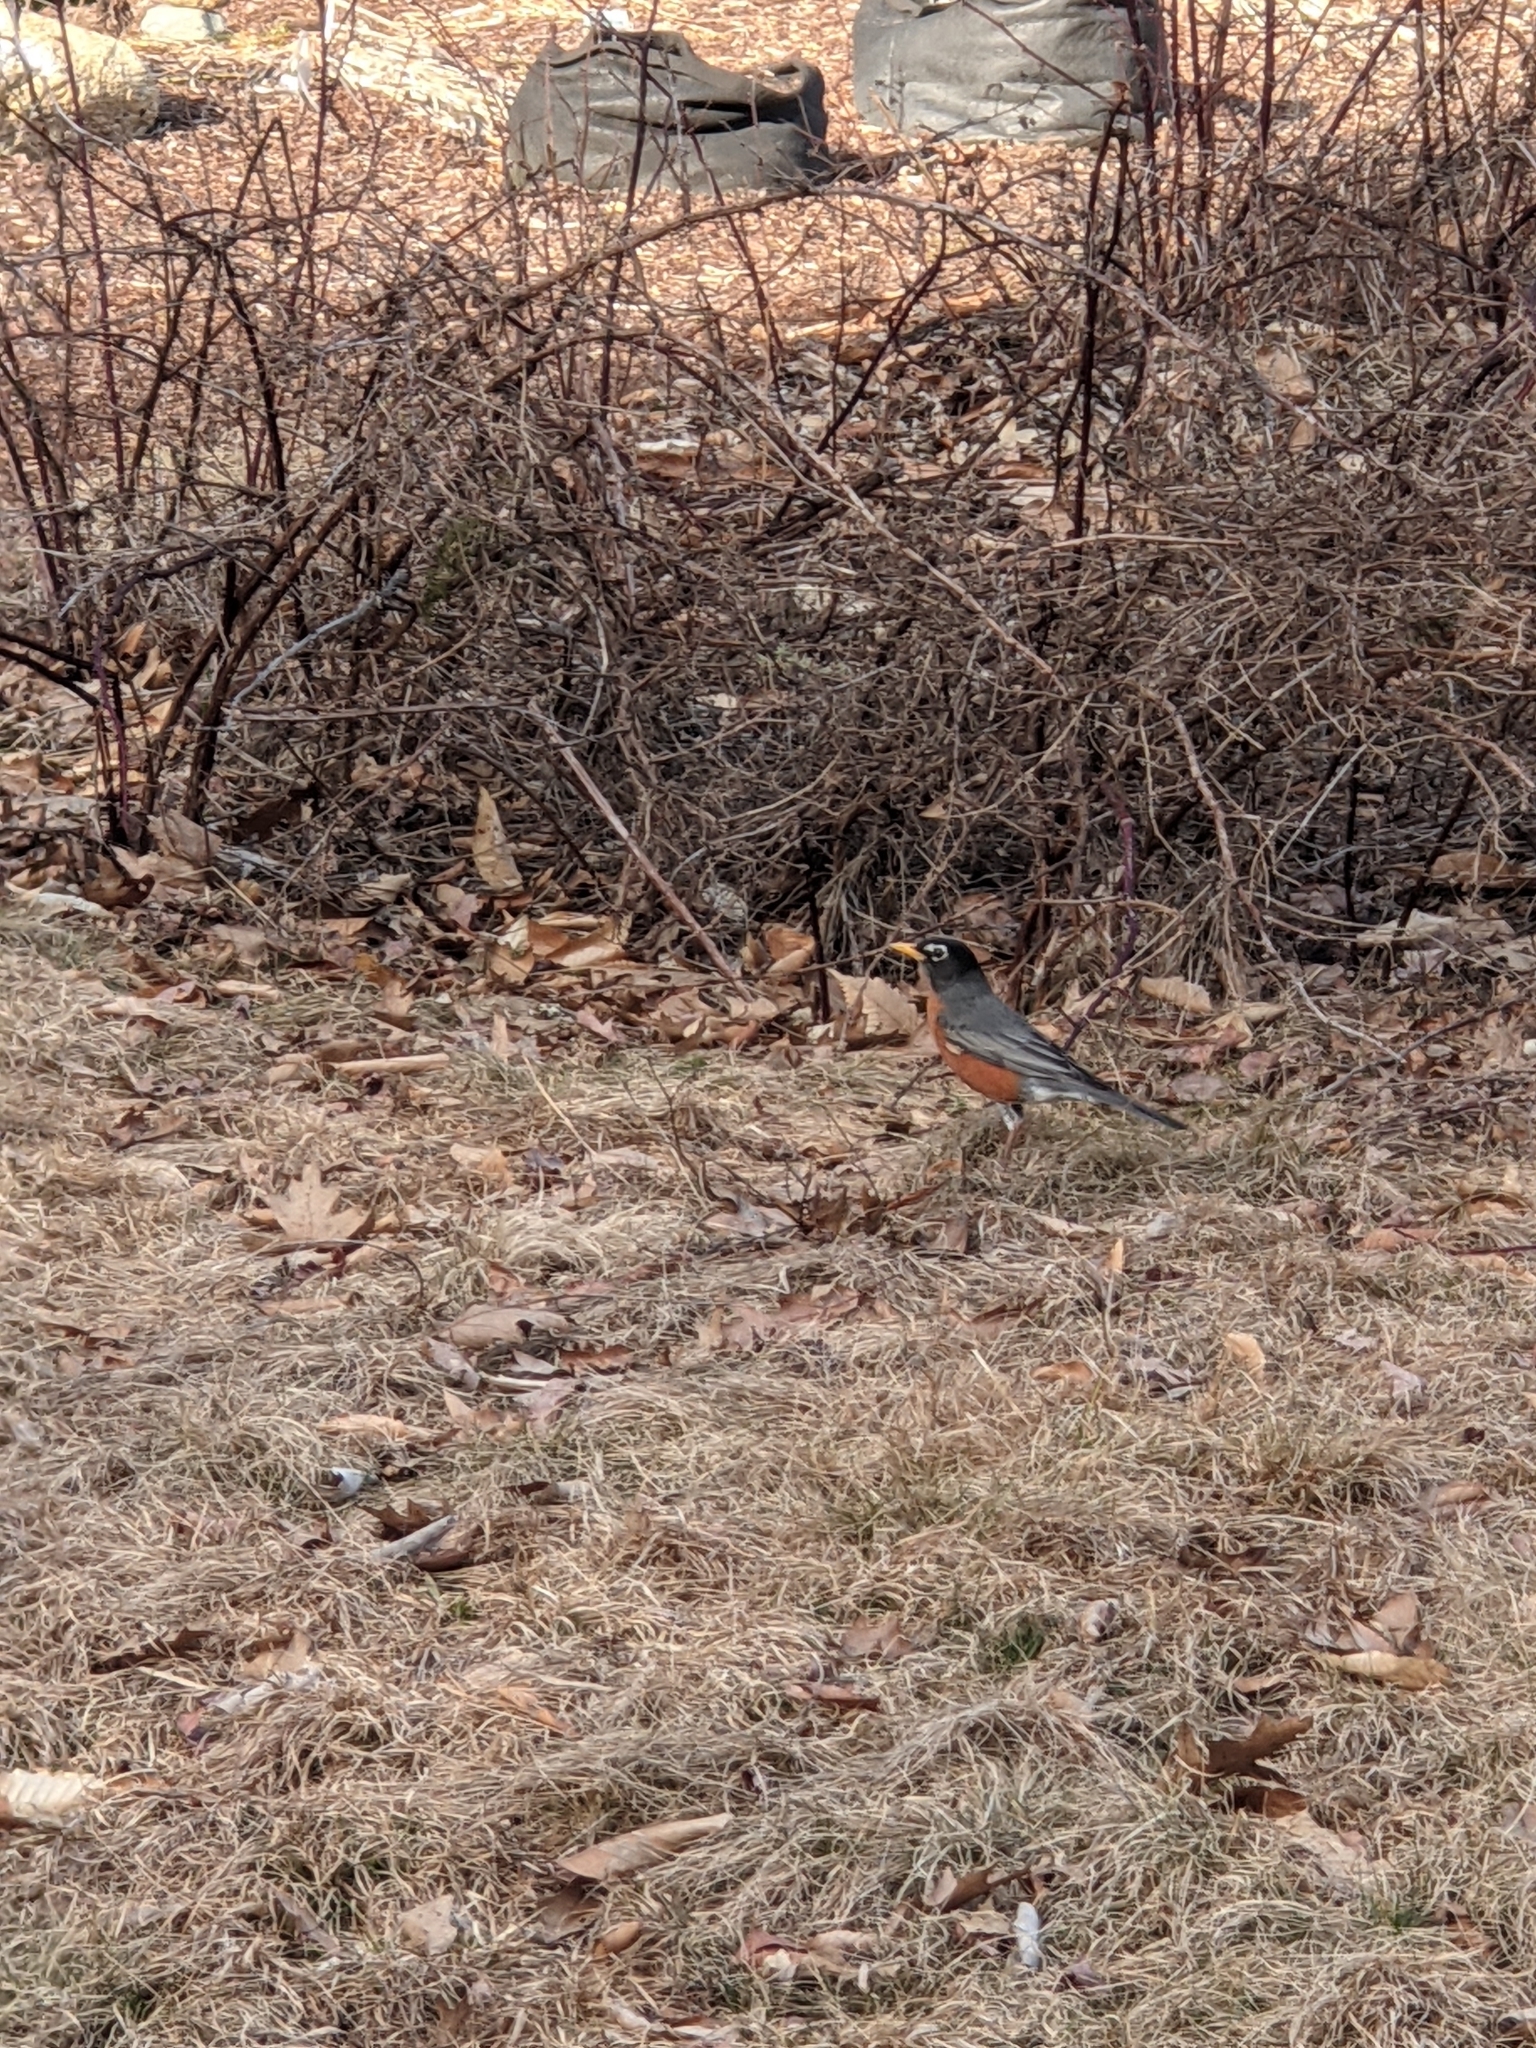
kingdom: Animalia
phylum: Chordata
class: Aves
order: Passeriformes
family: Turdidae
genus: Turdus
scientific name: Turdus migratorius
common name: American robin
